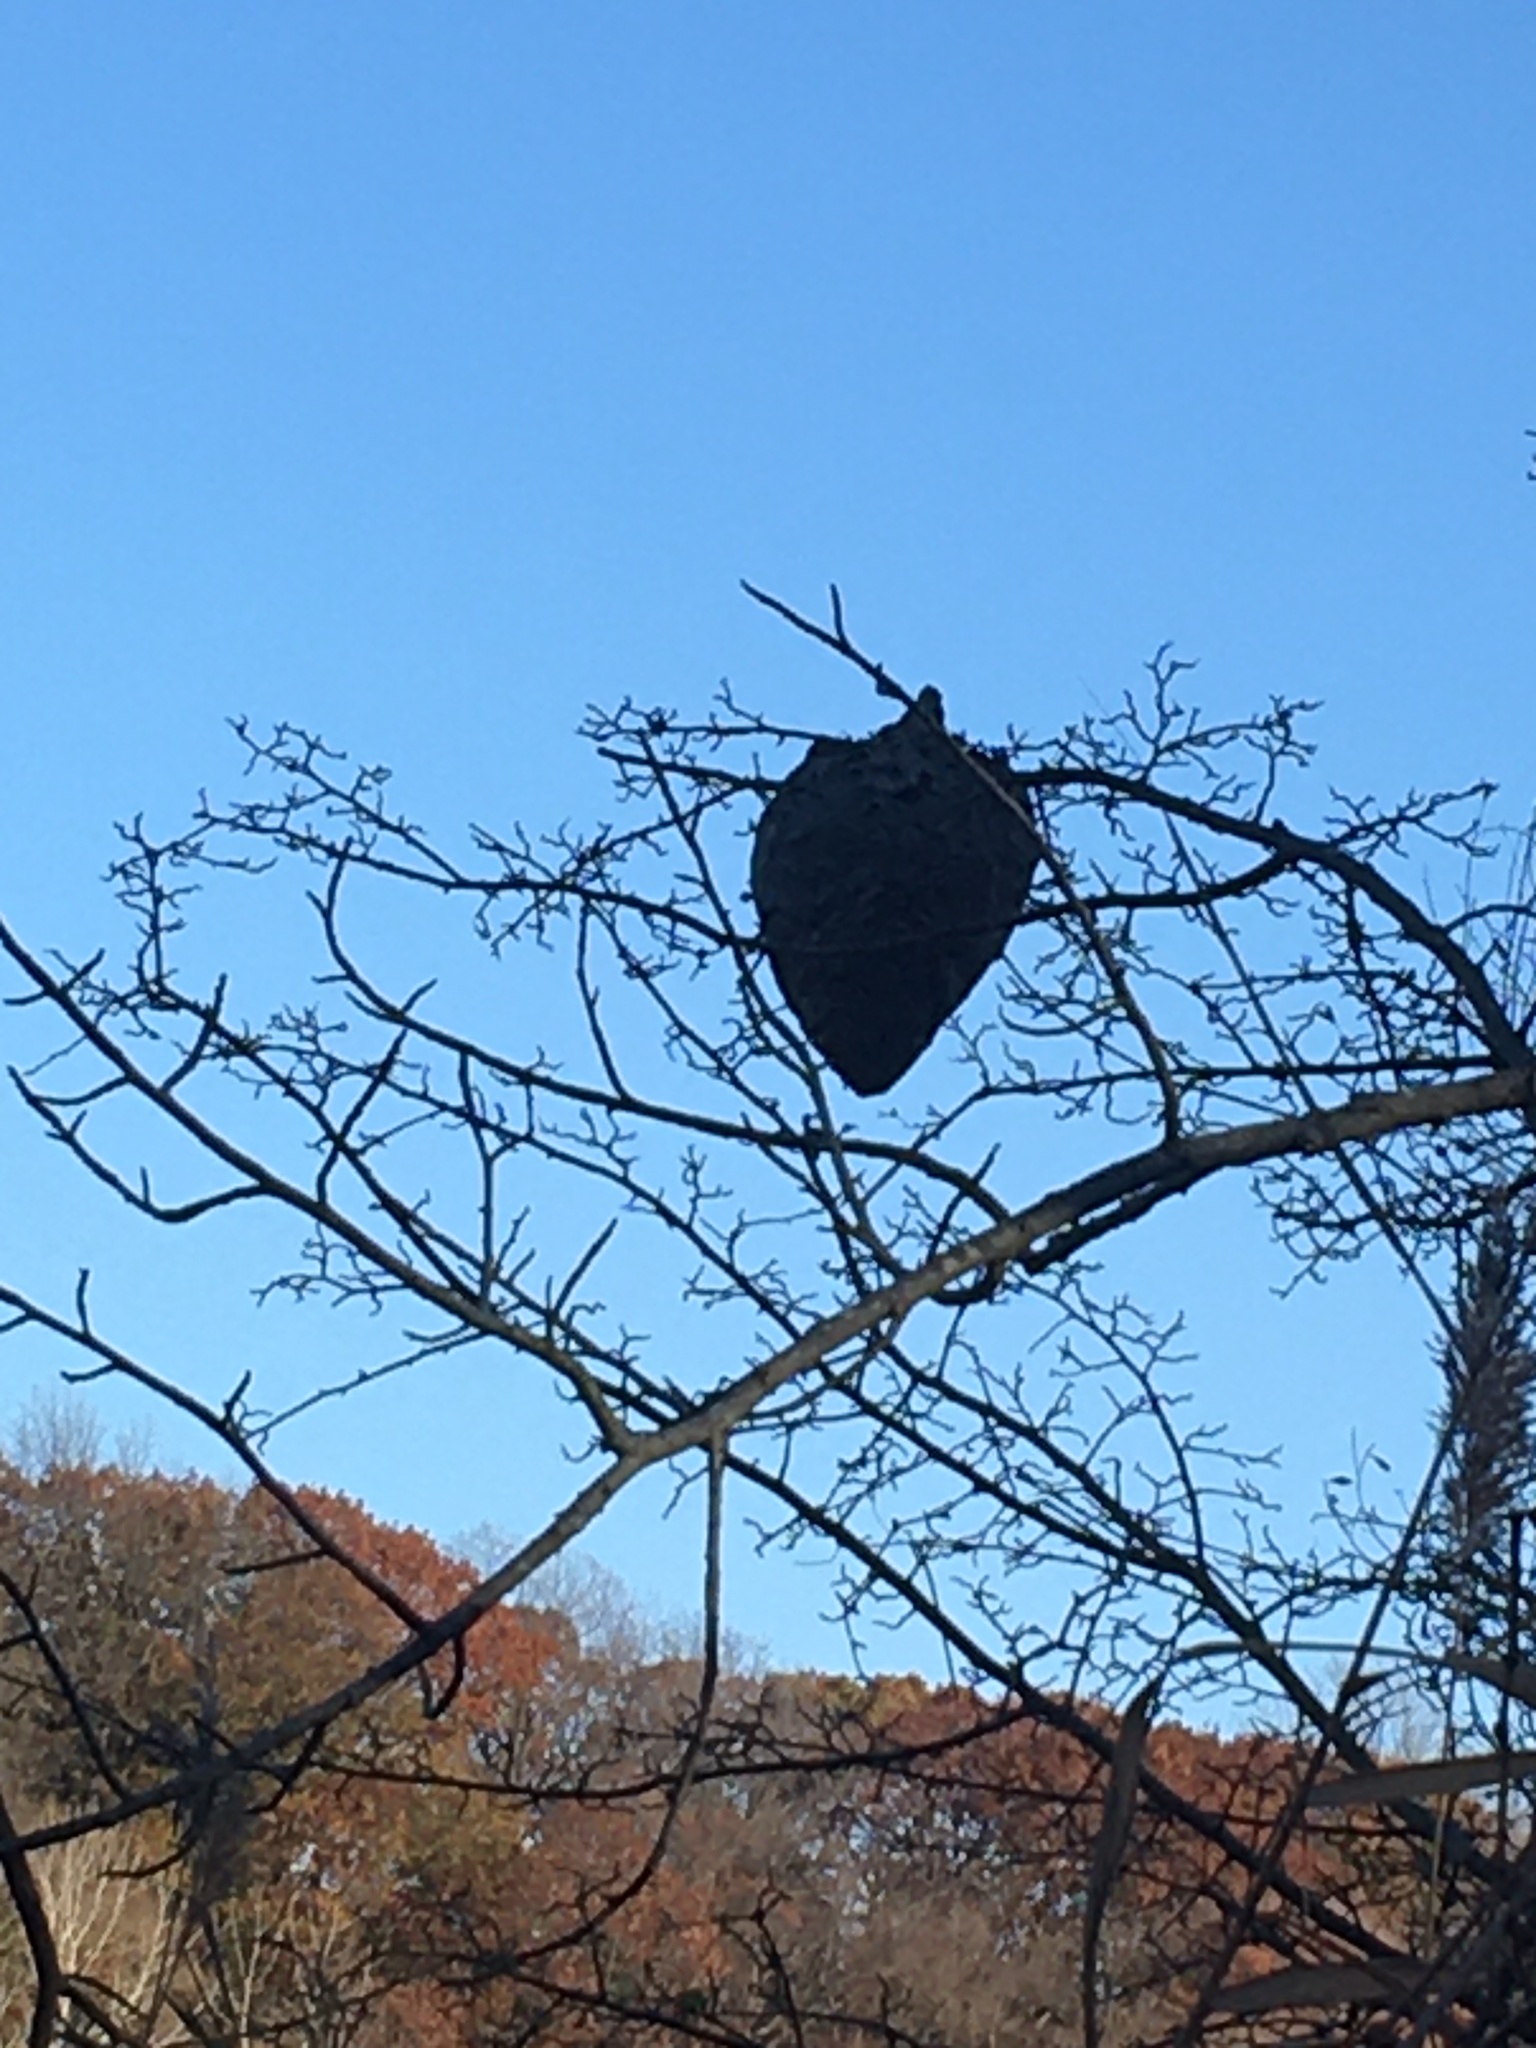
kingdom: Animalia
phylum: Arthropoda
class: Insecta
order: Hymenoptera
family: Vespidae
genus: Dolichovespula
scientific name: Dolichovespula maculata
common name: Bald-faced hornet
